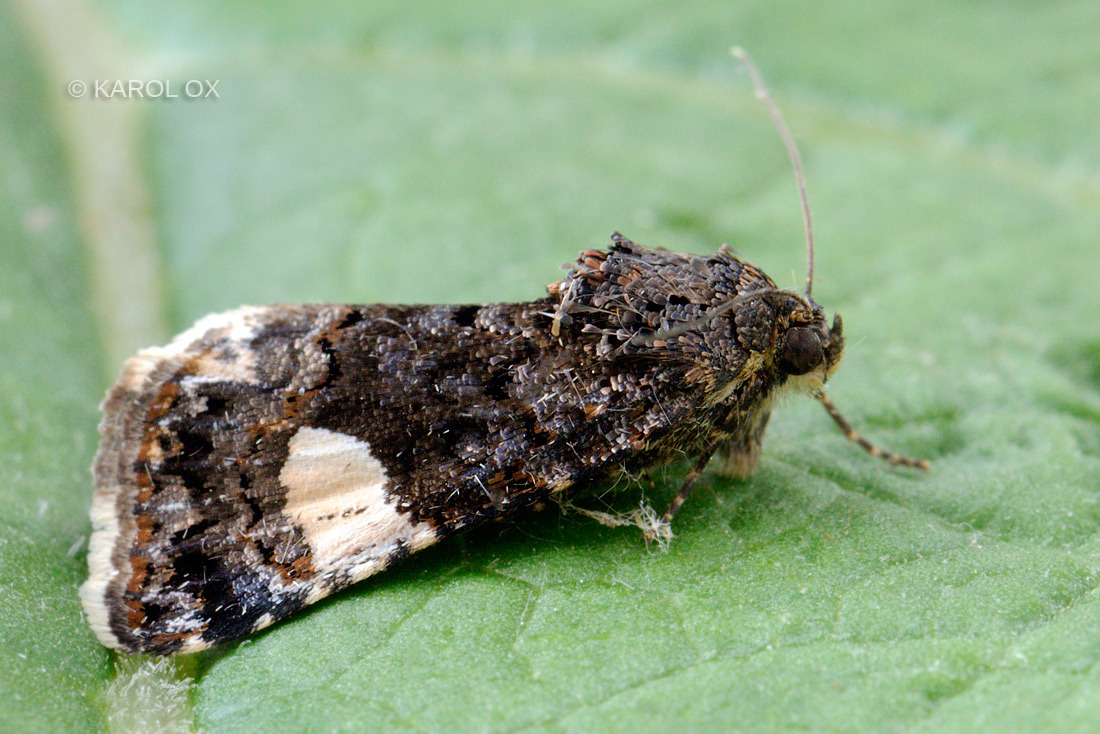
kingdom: Animalia
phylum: Arthropoda
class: Insecta
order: Lepidoptera
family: Erebidae
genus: Tyta
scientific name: Tyta luctuosa
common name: Four-spotted
